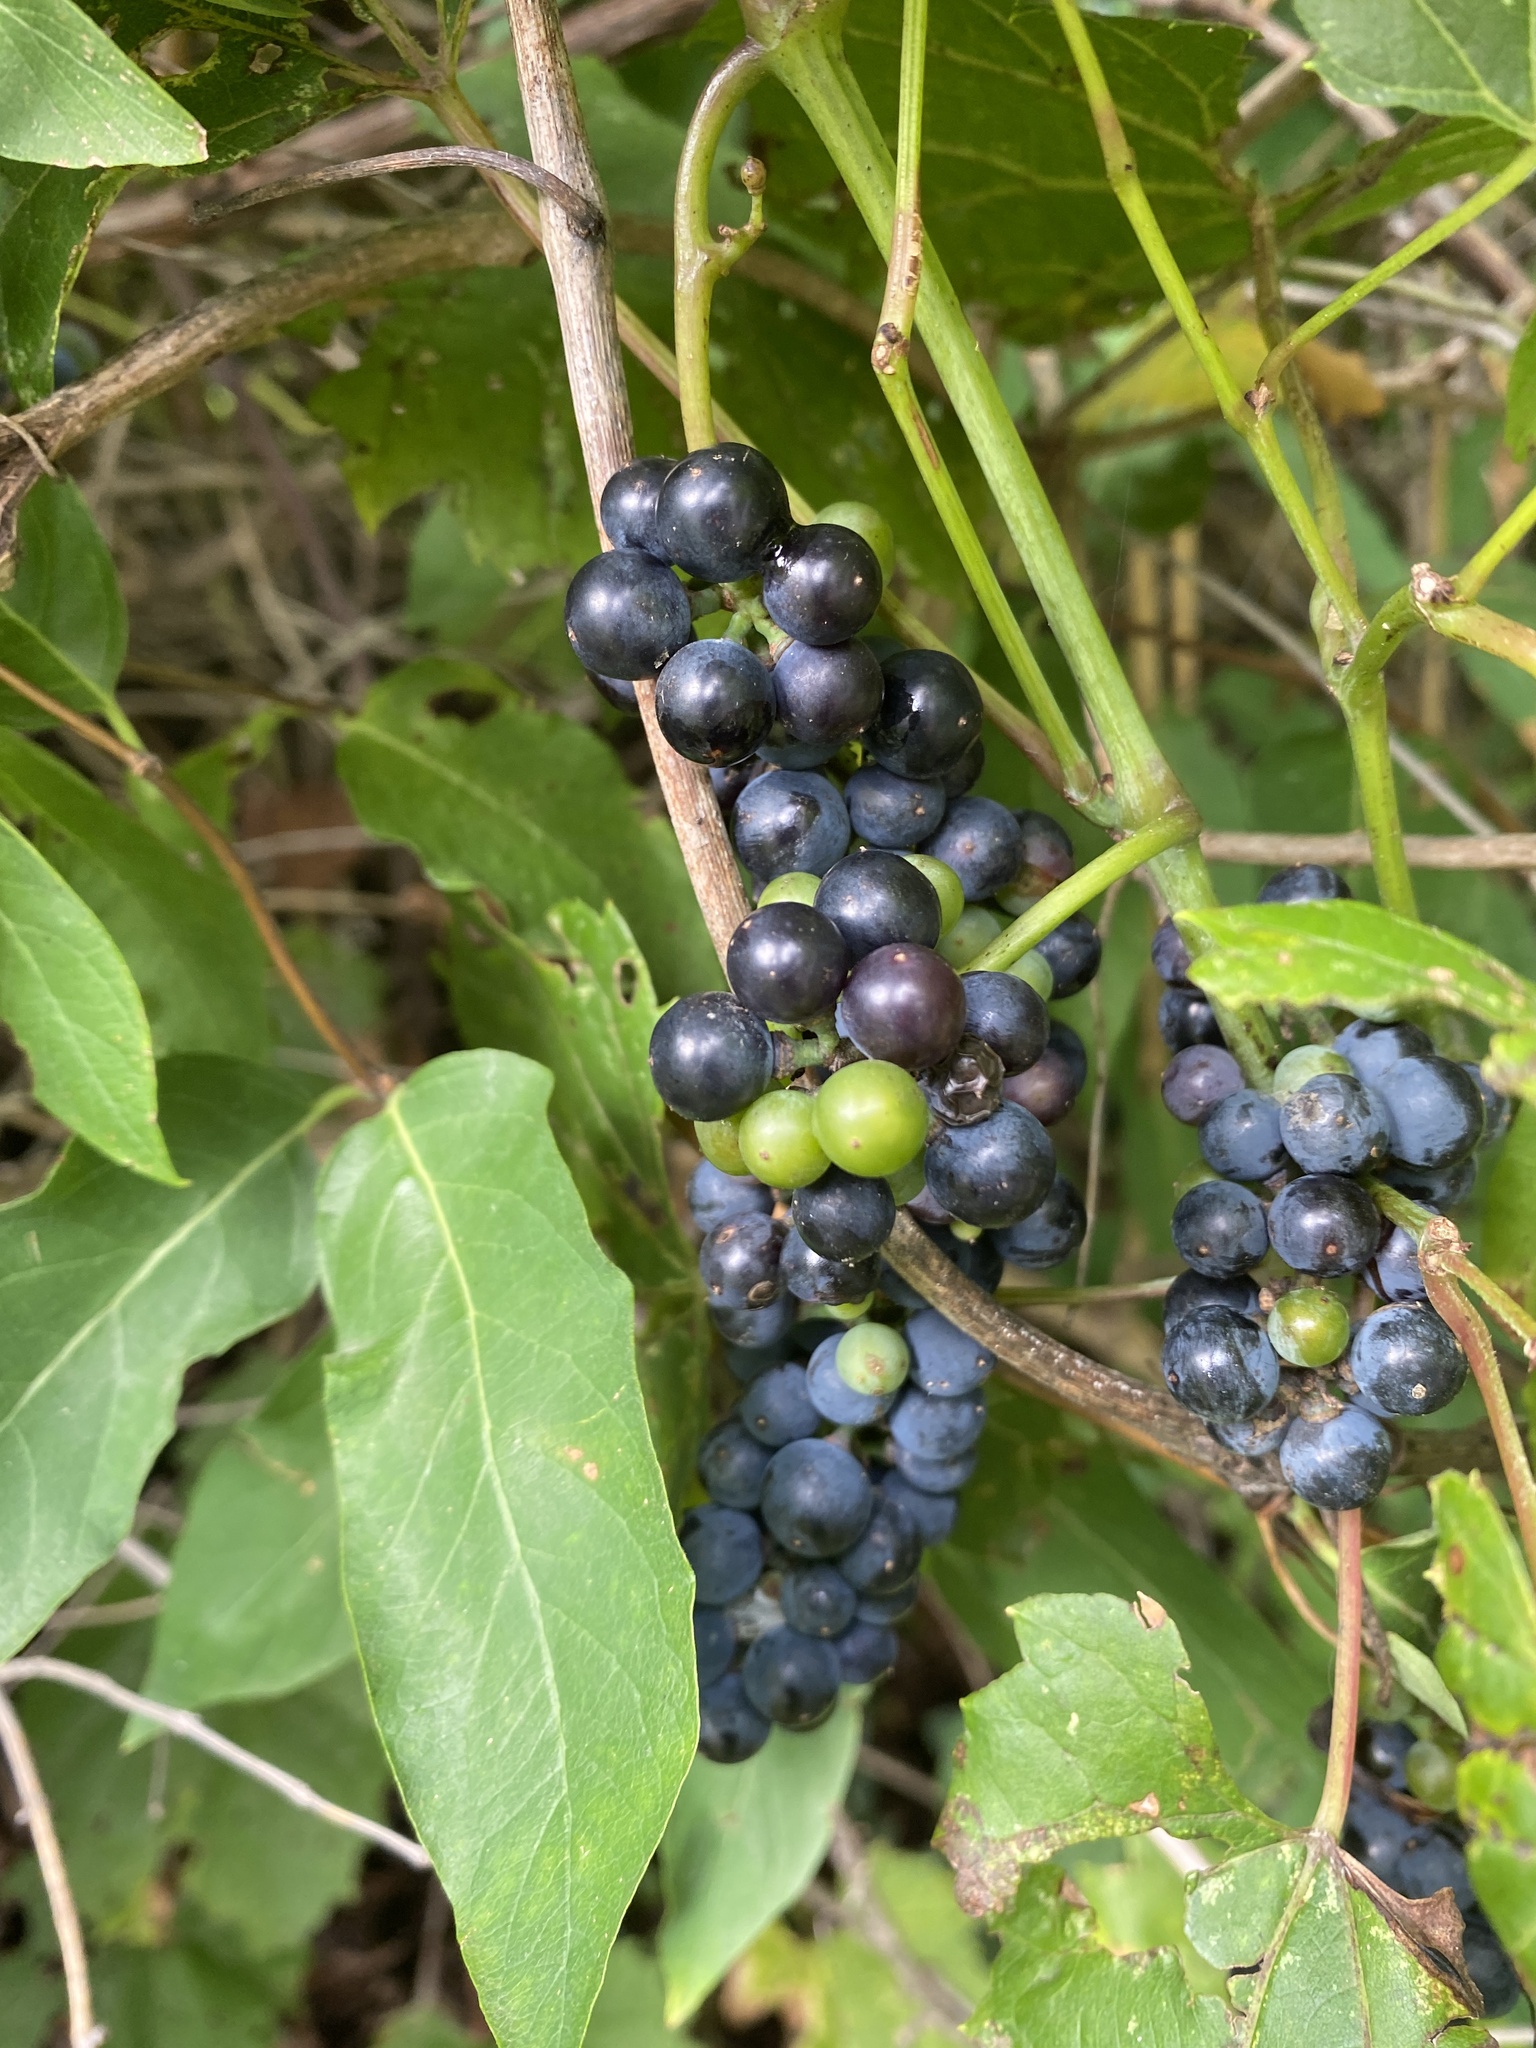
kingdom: Plantae
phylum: Tracheophyta
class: Magnoliopsida
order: Vitales
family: Vitaceae
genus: Vitis
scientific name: Vitis riparia
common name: Frost grape
